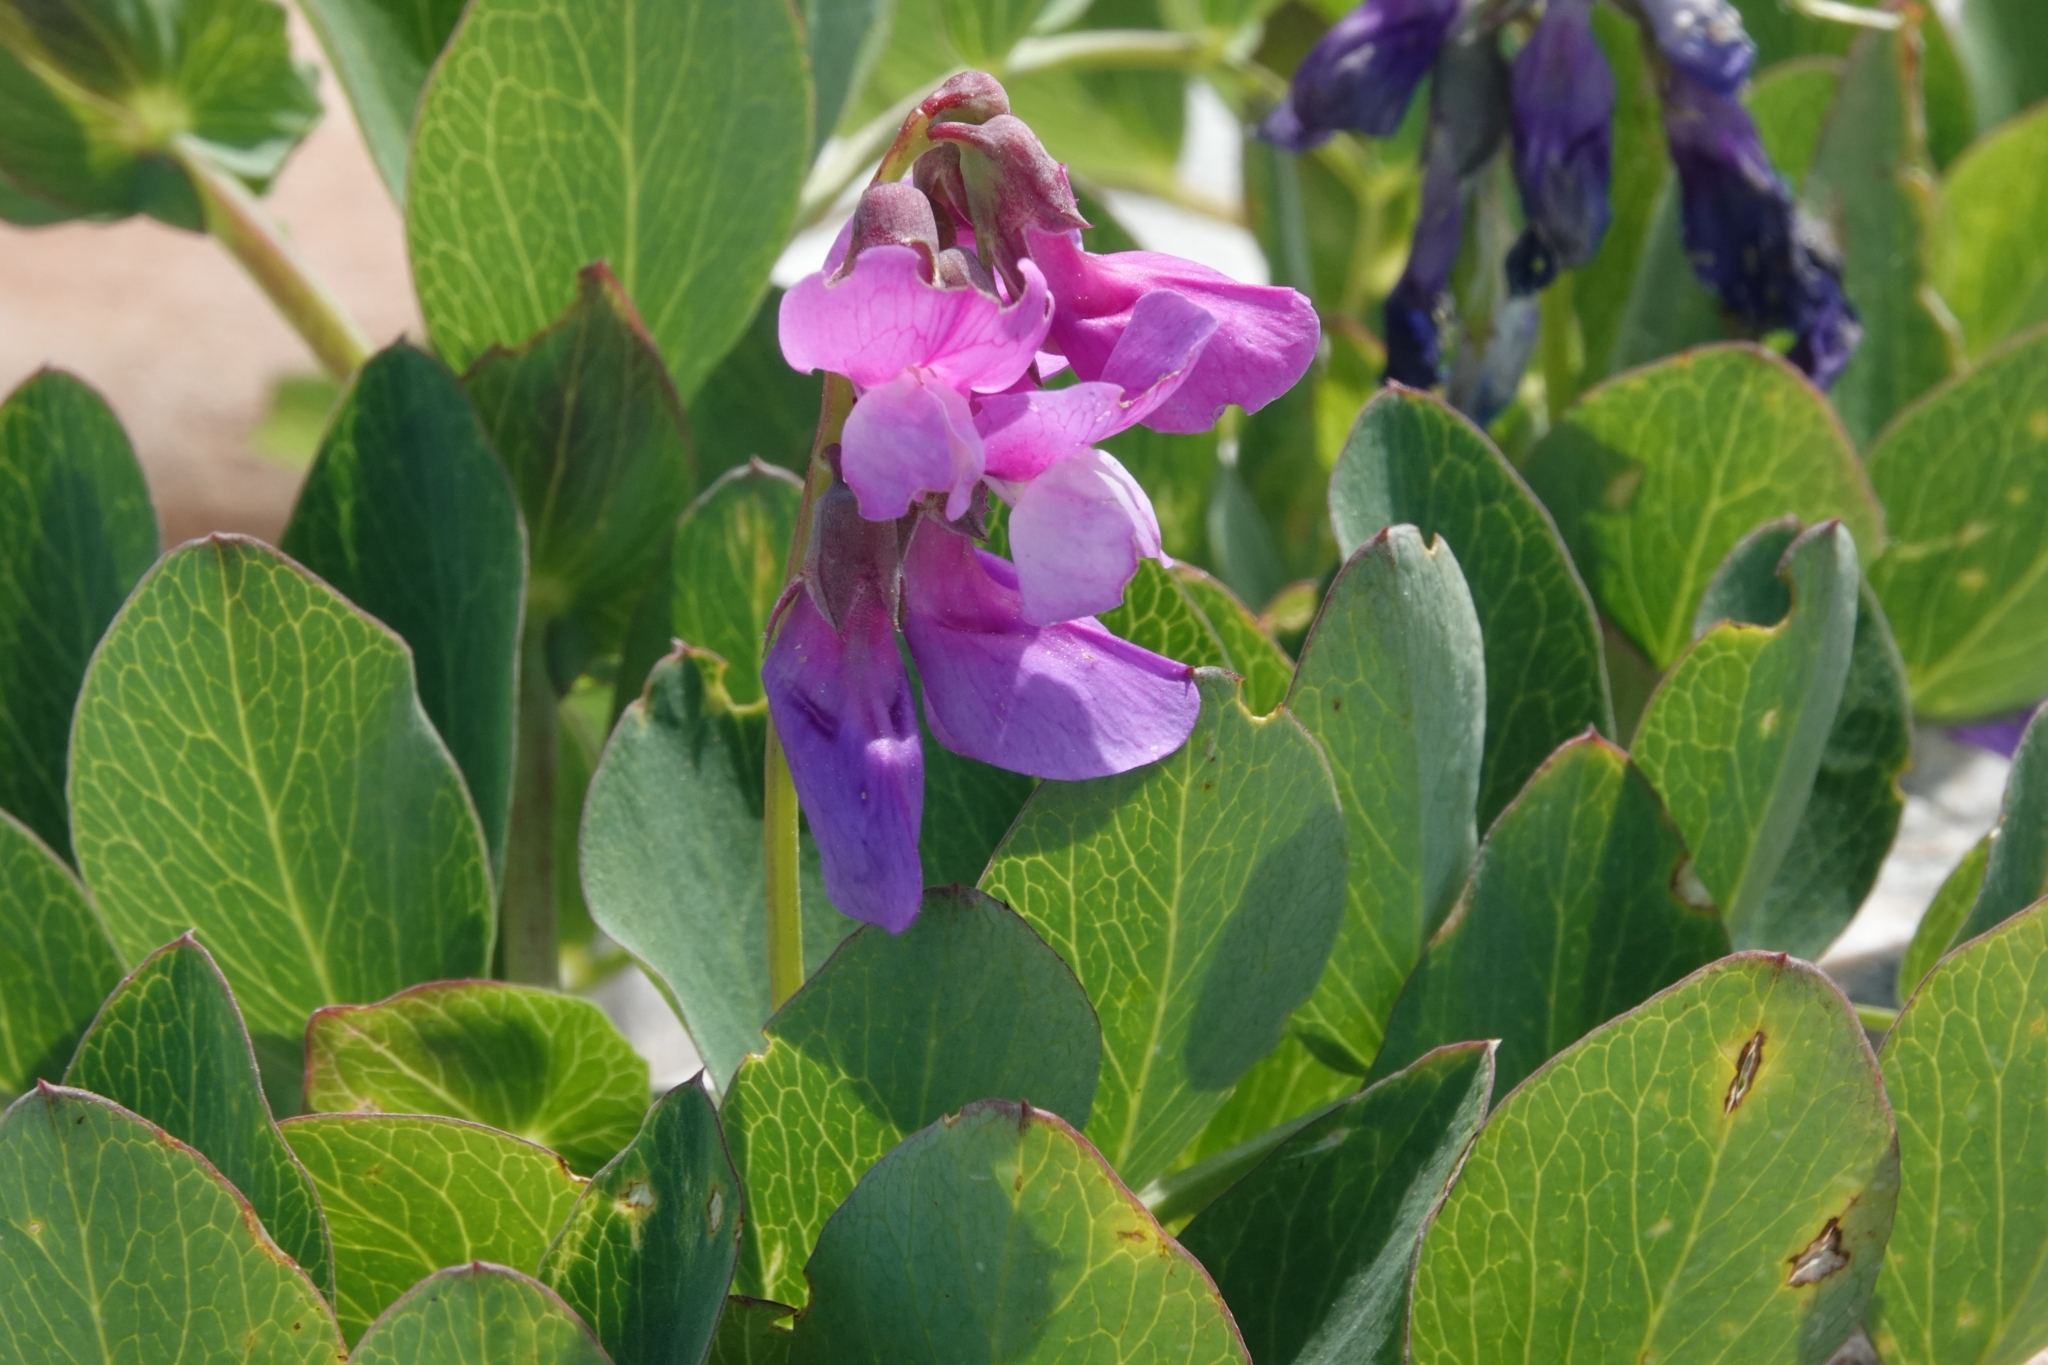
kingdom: Plantae
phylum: Tracheophyta
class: Magnoliopsida
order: Fabales
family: Fabaceae
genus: Lathyrus
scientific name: Lathyrus japonicus
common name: Sea pea
